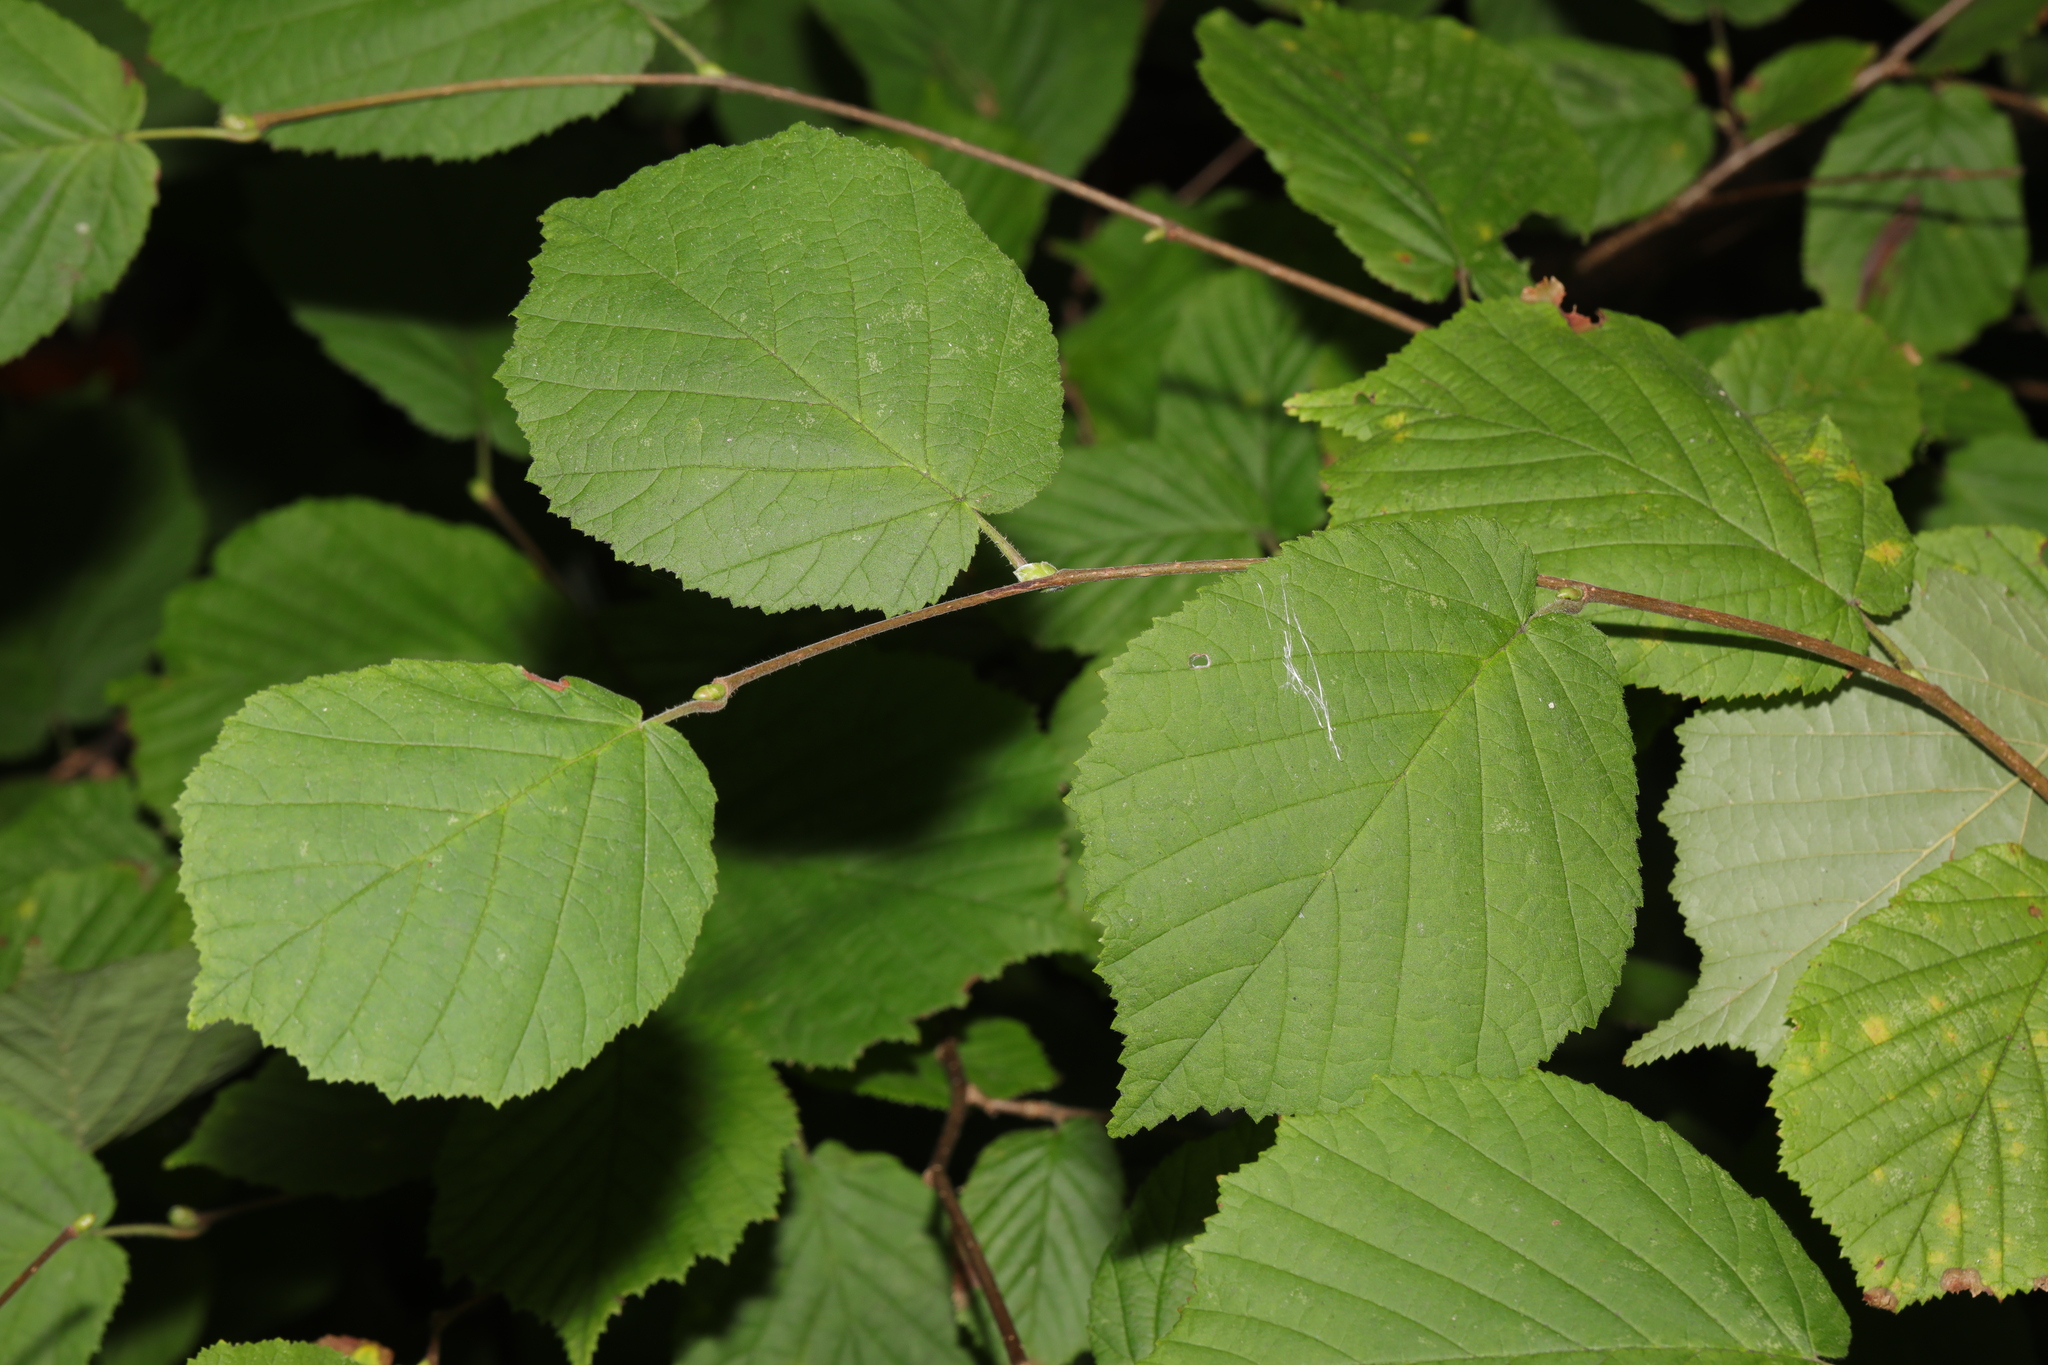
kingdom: Plantae
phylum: Tracheophyta
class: Magnoliopsida
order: Fagales
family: Betulaceae
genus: Corylus
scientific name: Corylus avellana
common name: European hazel
